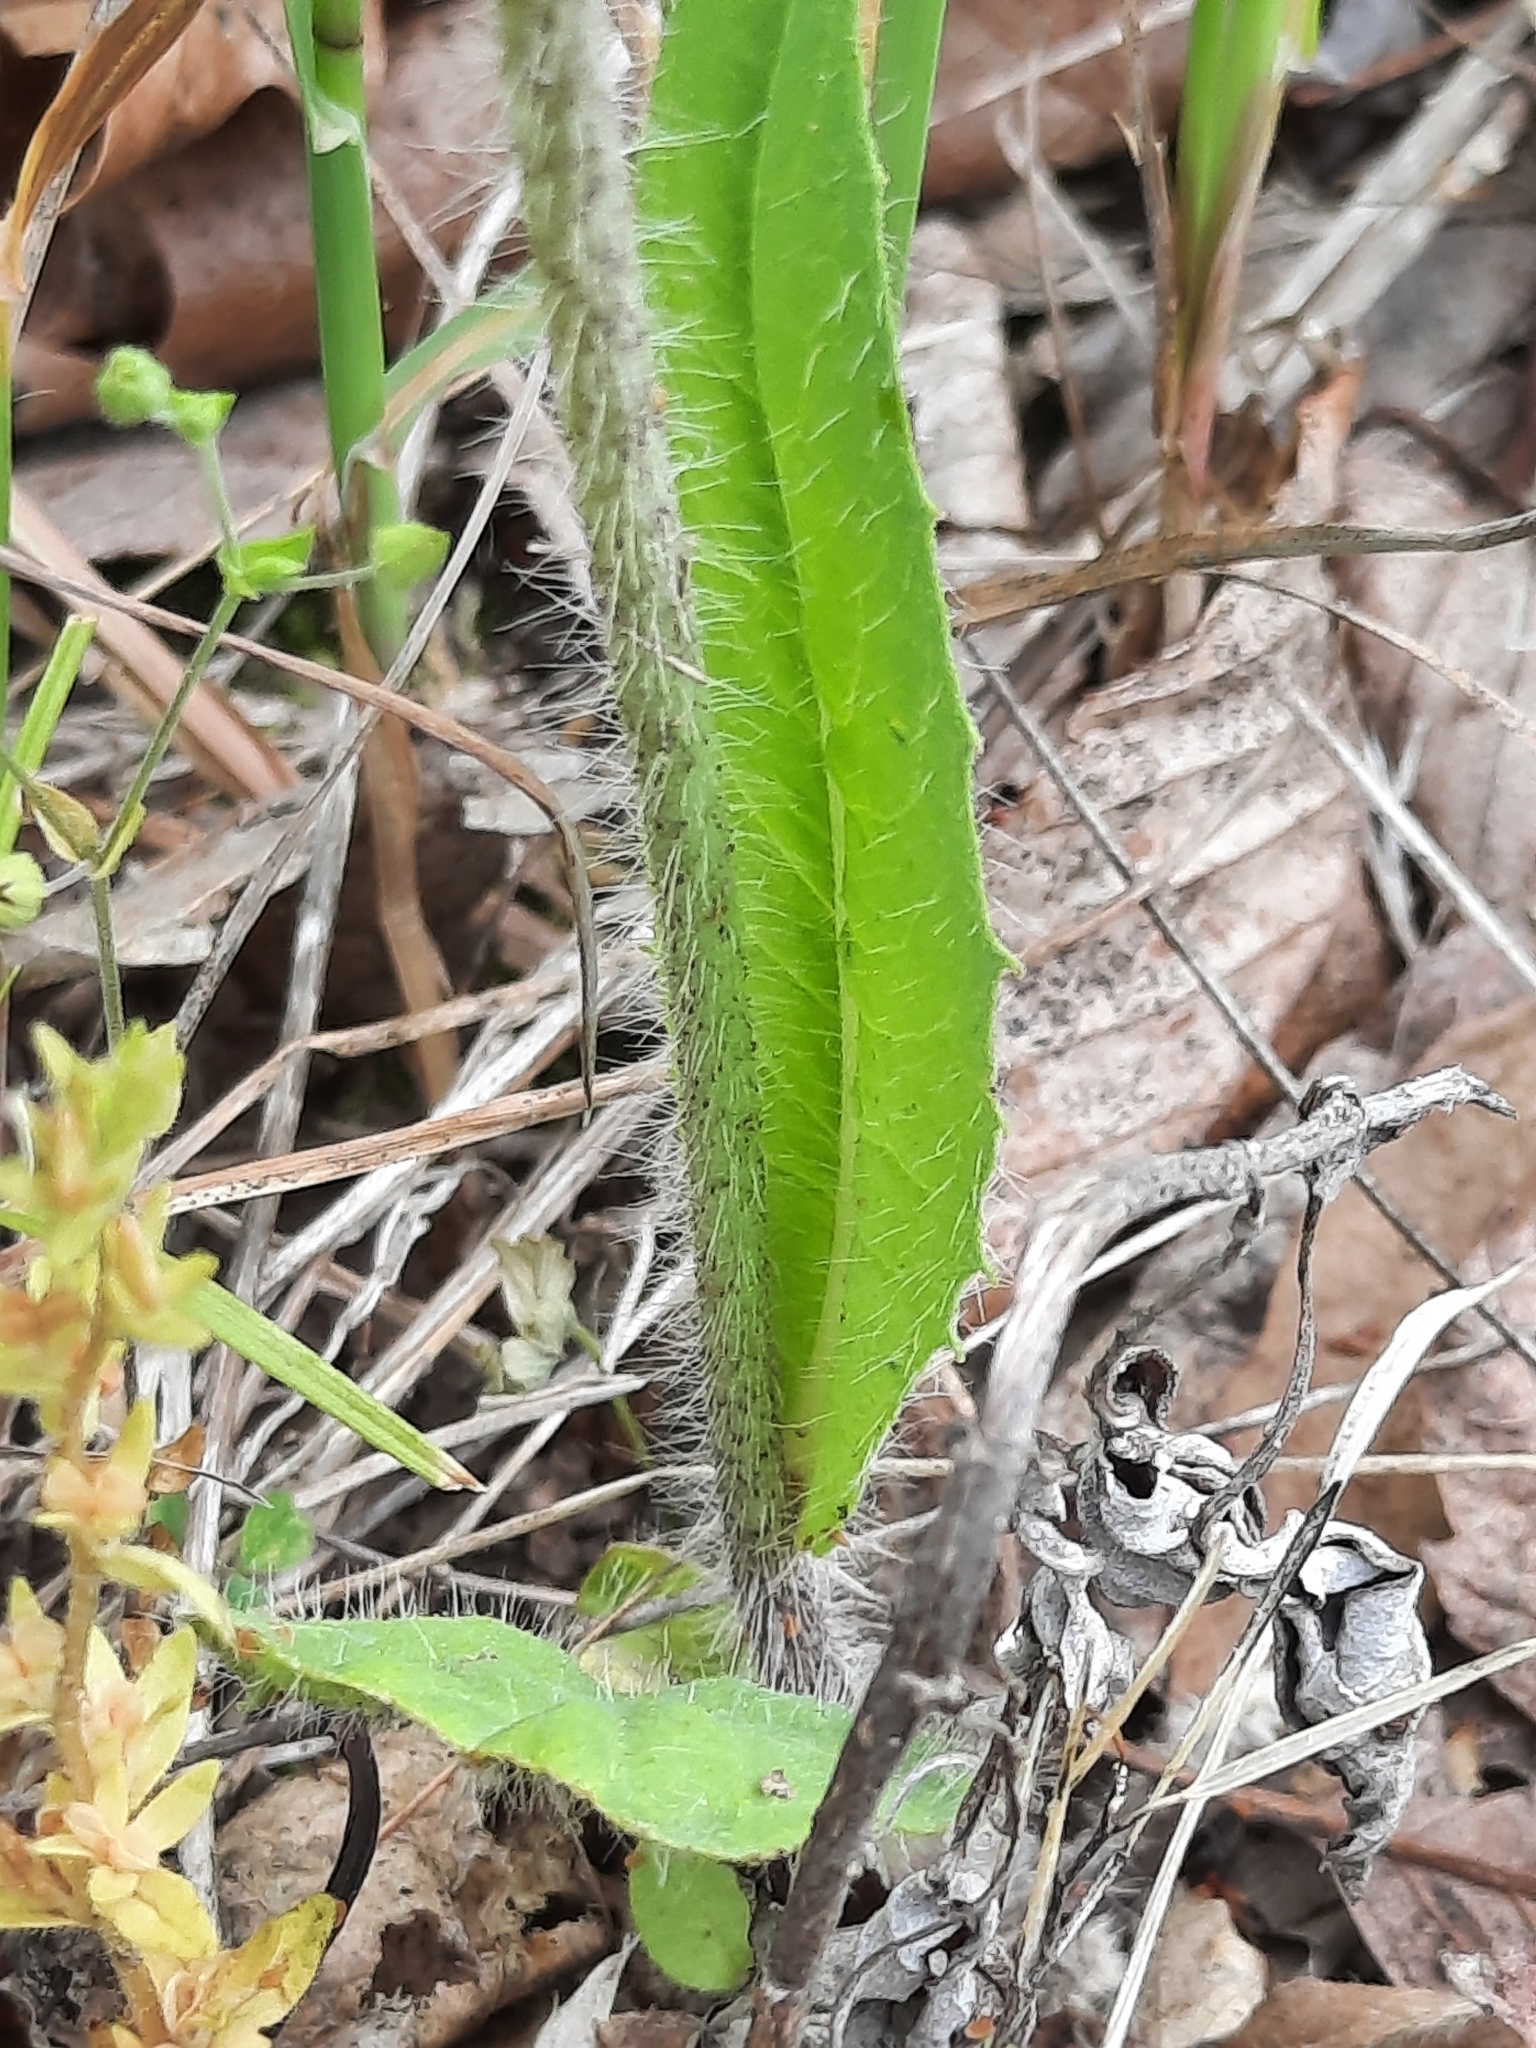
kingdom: Plantae
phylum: Tracheophyta
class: Magnoliopsida
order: Asterales
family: Asteraceae
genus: Pilosella
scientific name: Pilosella caespitosa
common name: Yellow fox-and-cubs
